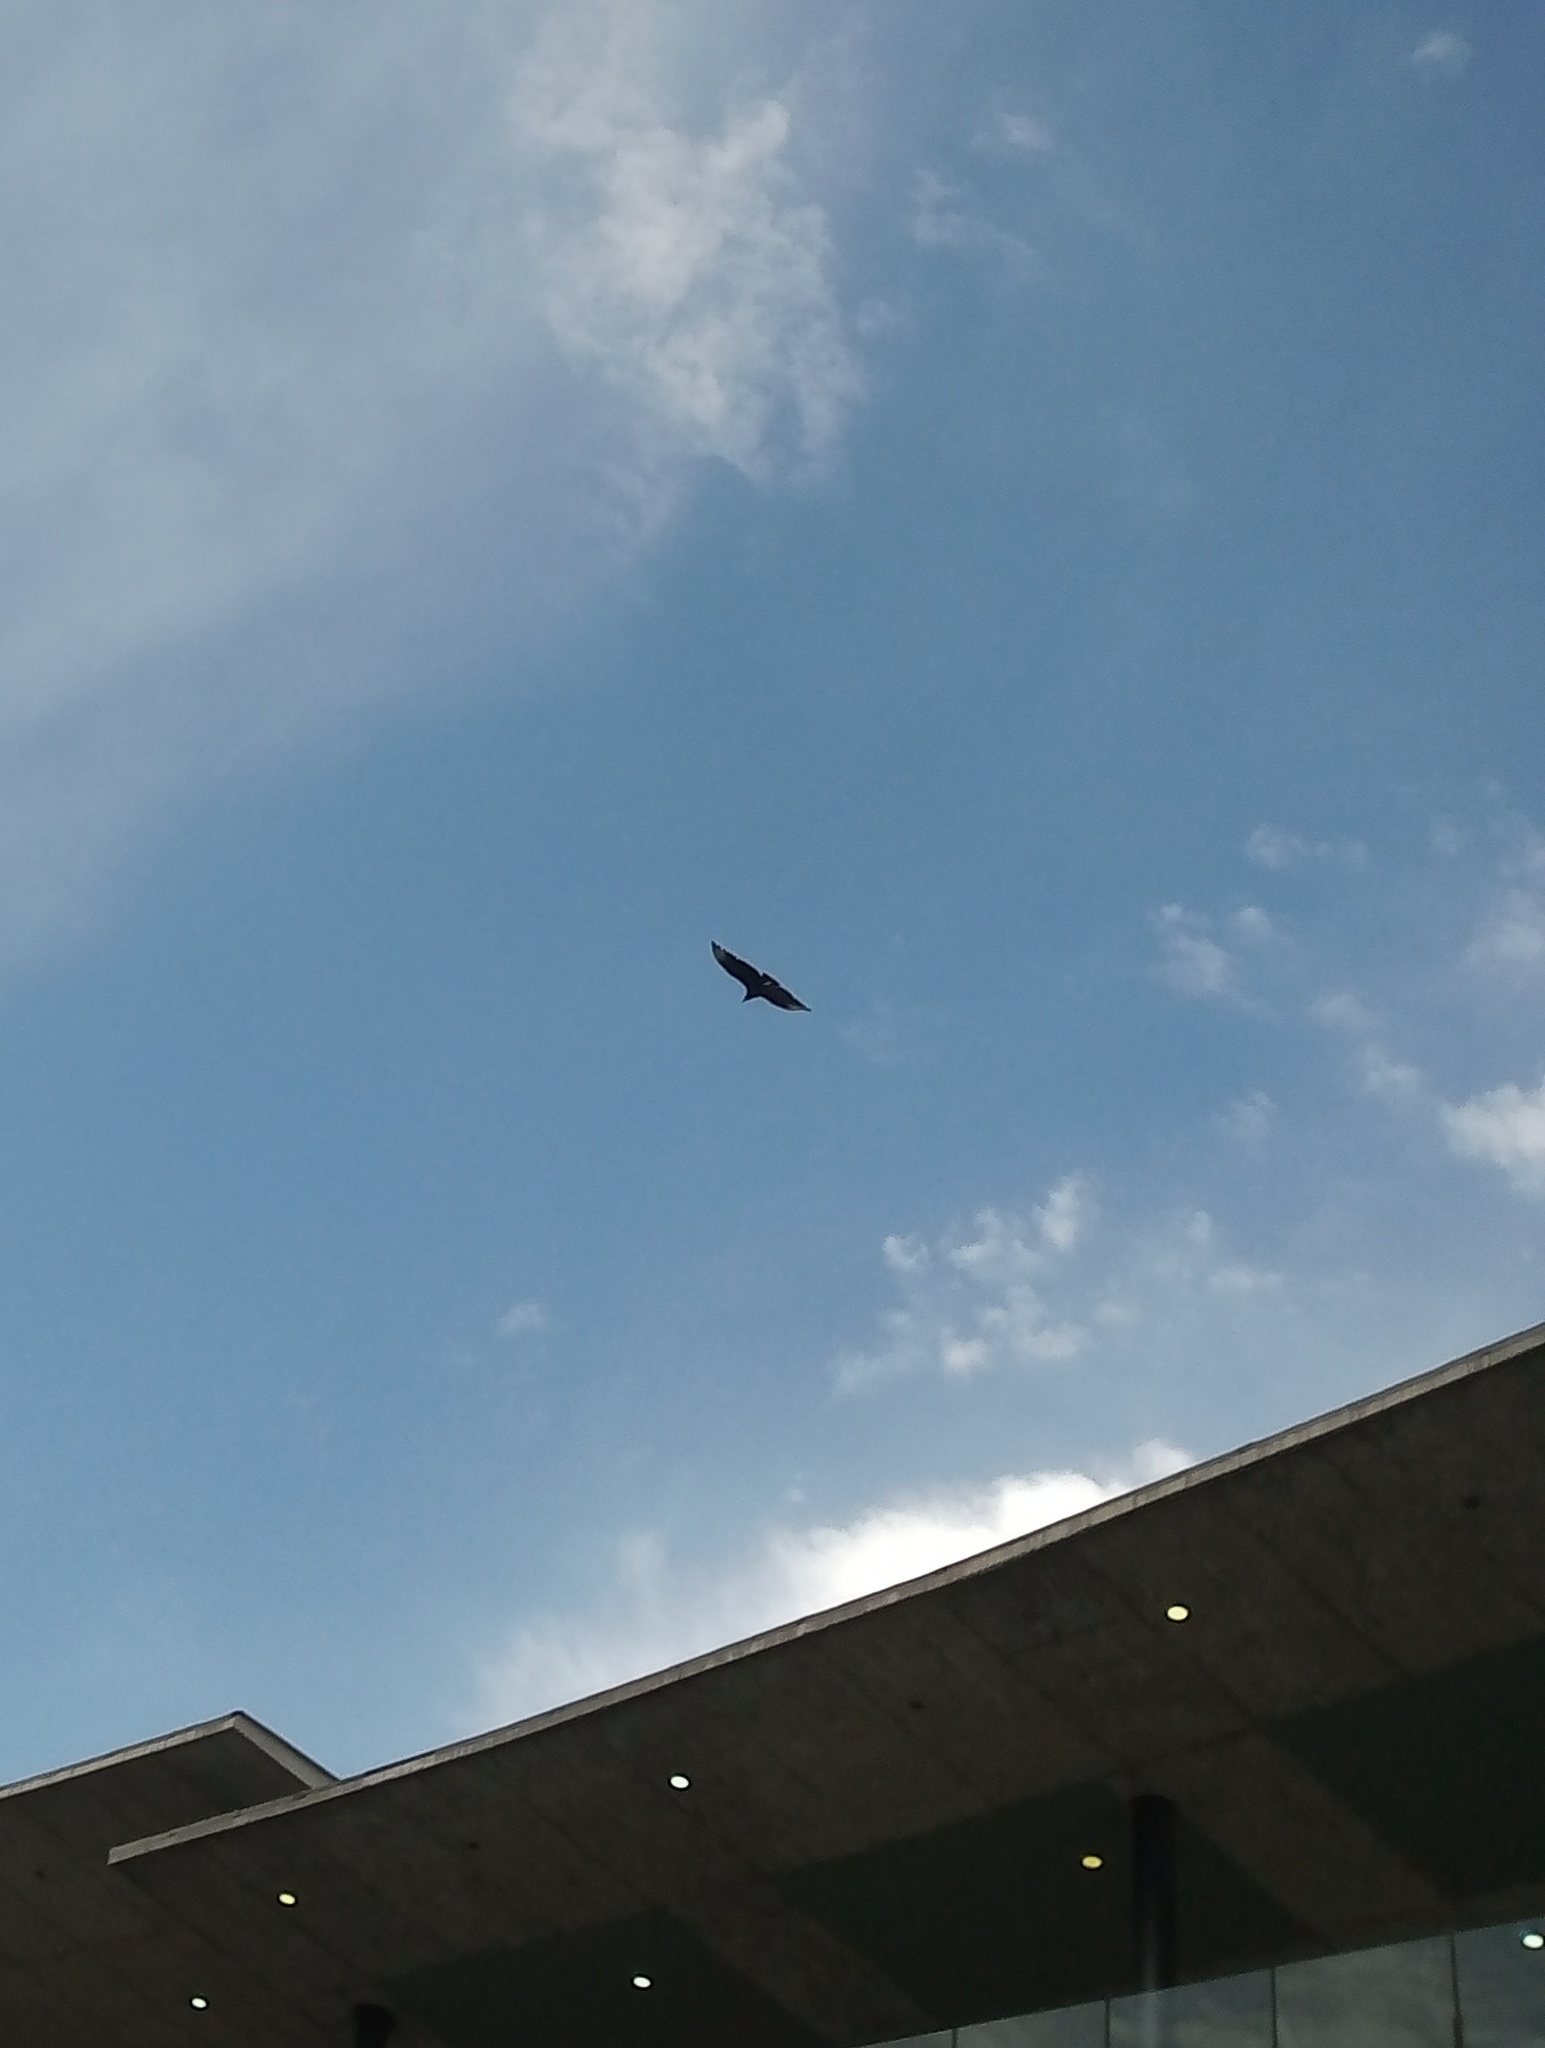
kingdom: Animalia
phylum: Chordata
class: Aves
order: Accipitriformes
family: Cathartidae
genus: Coragyps
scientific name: Coragyps atratus
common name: Black vulture
